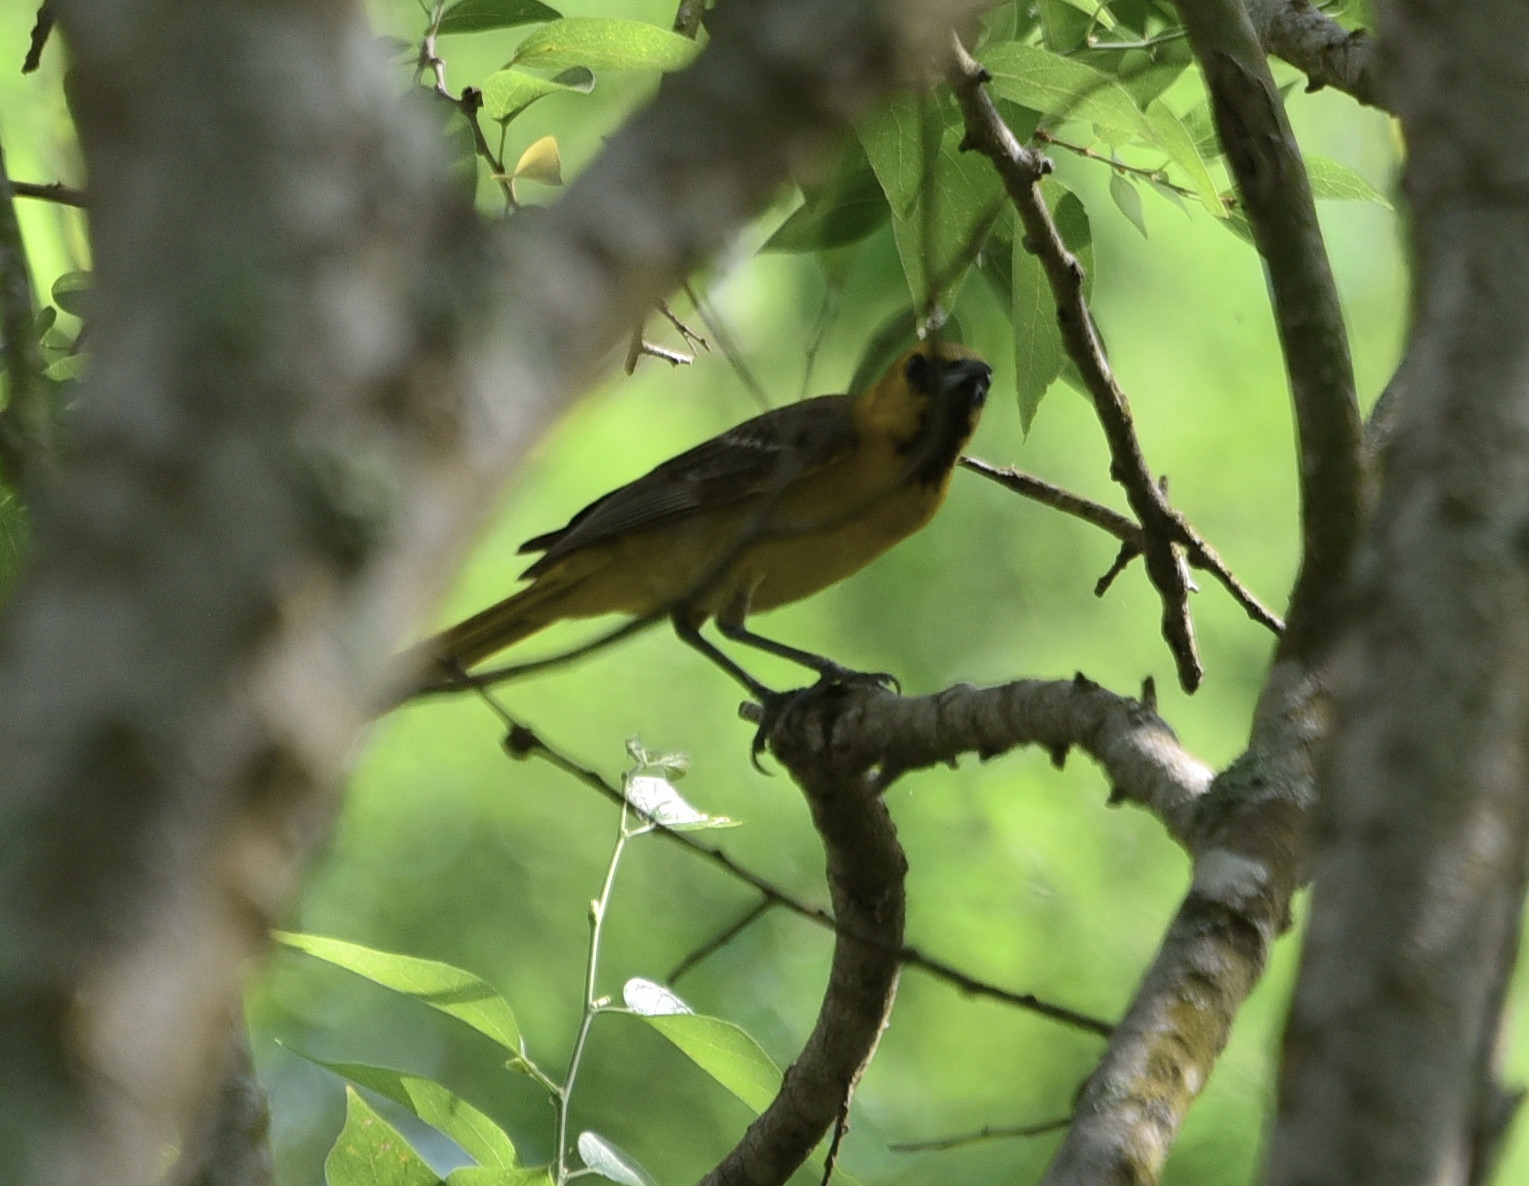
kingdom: Animalia
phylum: Chordata
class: Aves
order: Passeriformes
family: Icteridae
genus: Icterus
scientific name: Icterus cucullatus
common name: Hooded oriole
